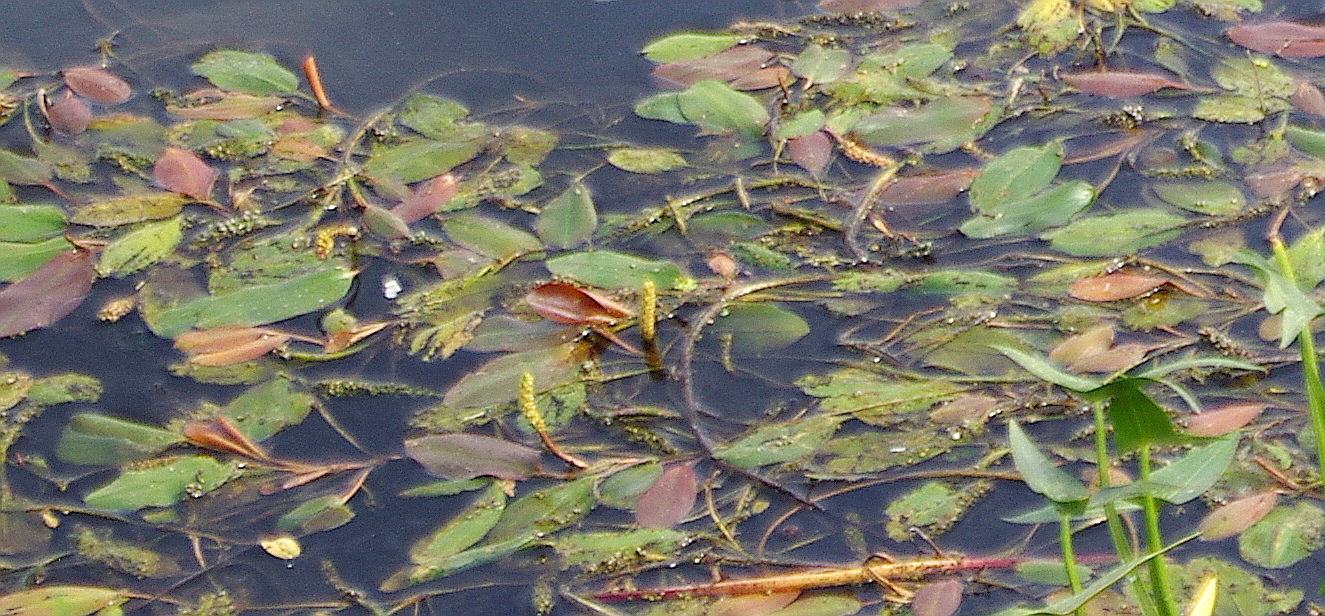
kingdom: Plantae
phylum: Tracheophyta
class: Liliopsida
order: Alismatales
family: Potamogetonaceae
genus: Potamogeton
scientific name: Potamogeton natans
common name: Broad-leaved pondweed
